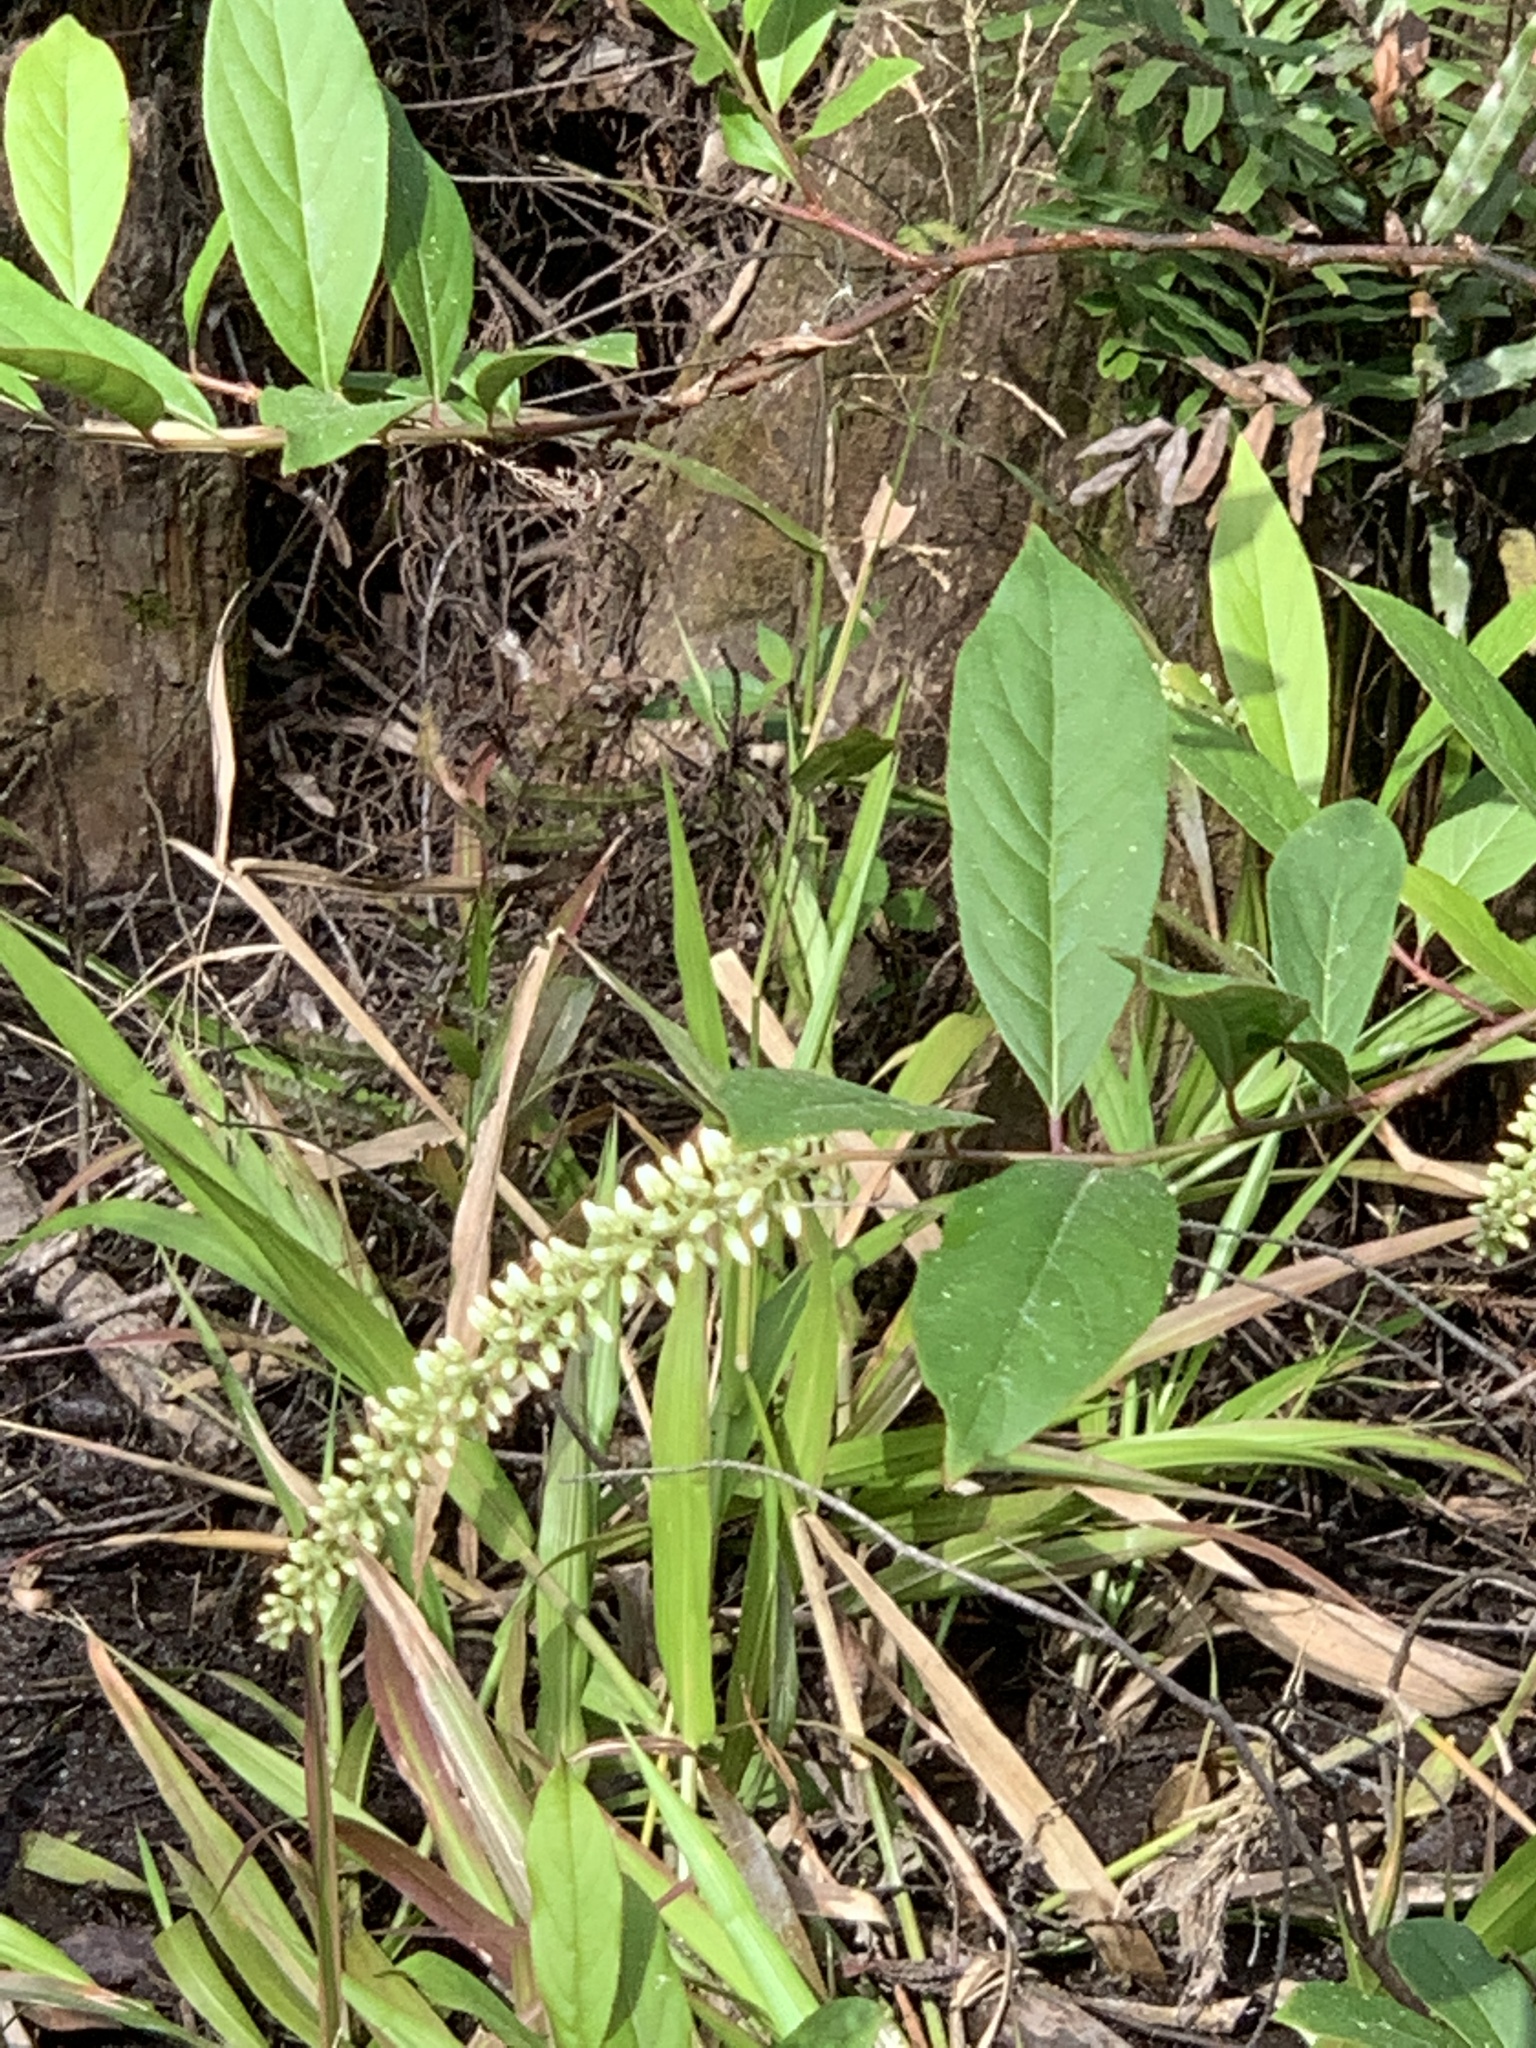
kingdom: Plantae
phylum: Tracheophyta
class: Magnoliopsida
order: Saxifragales
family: Iteaceae
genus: Itea
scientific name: Itea virginica
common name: Sweetspire
